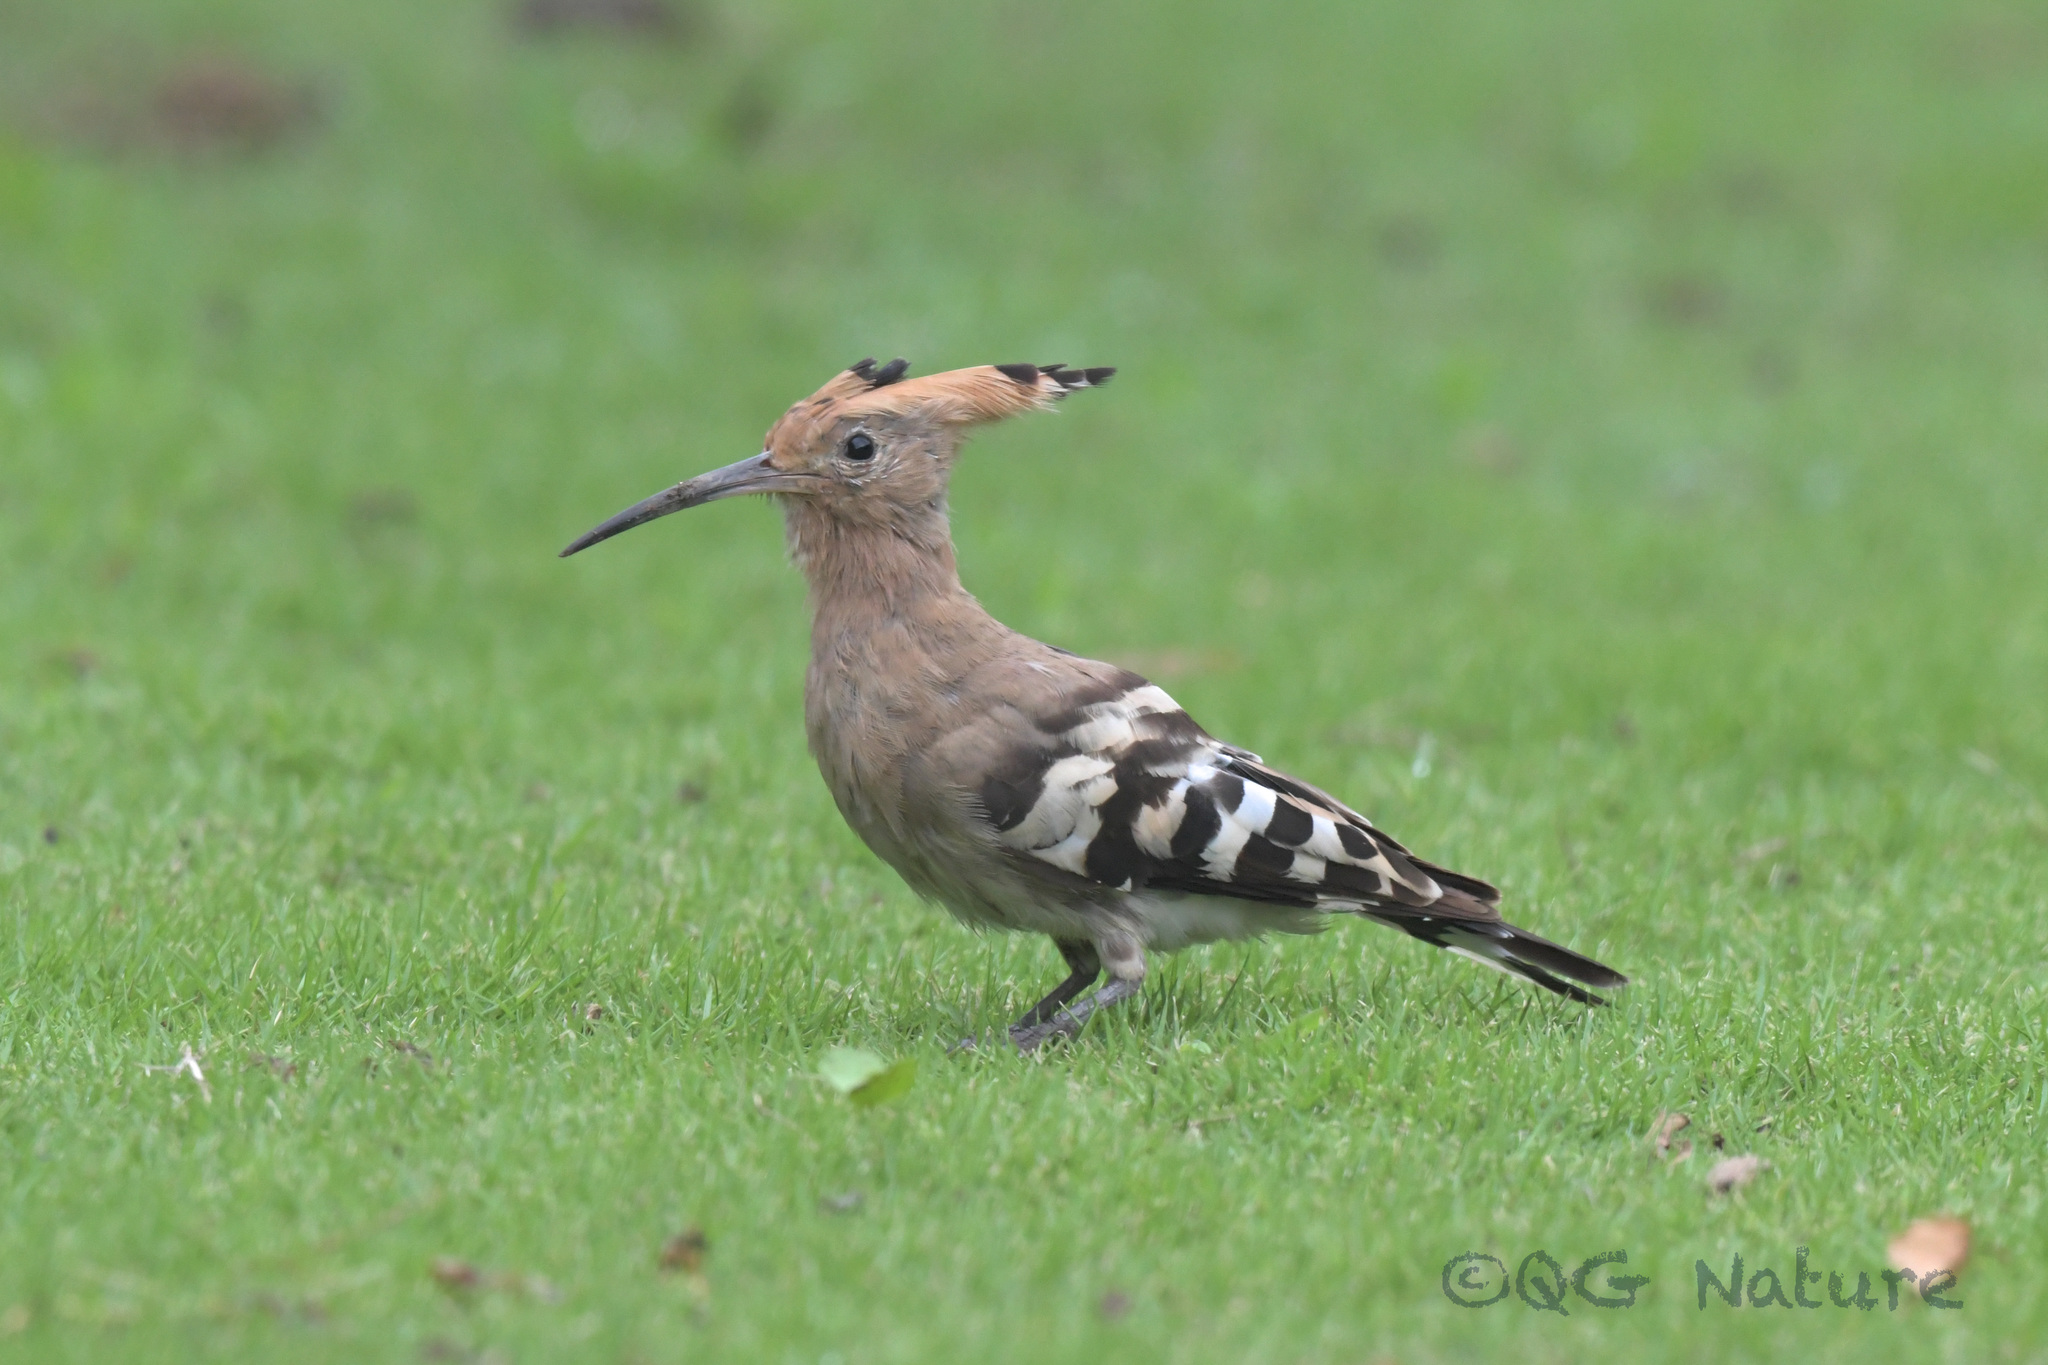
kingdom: Animalia
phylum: Chordata
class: Aves
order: Bucerotiformes
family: Upupidae
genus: Upupa
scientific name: Upupa epops
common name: Eurasian hoopoe
